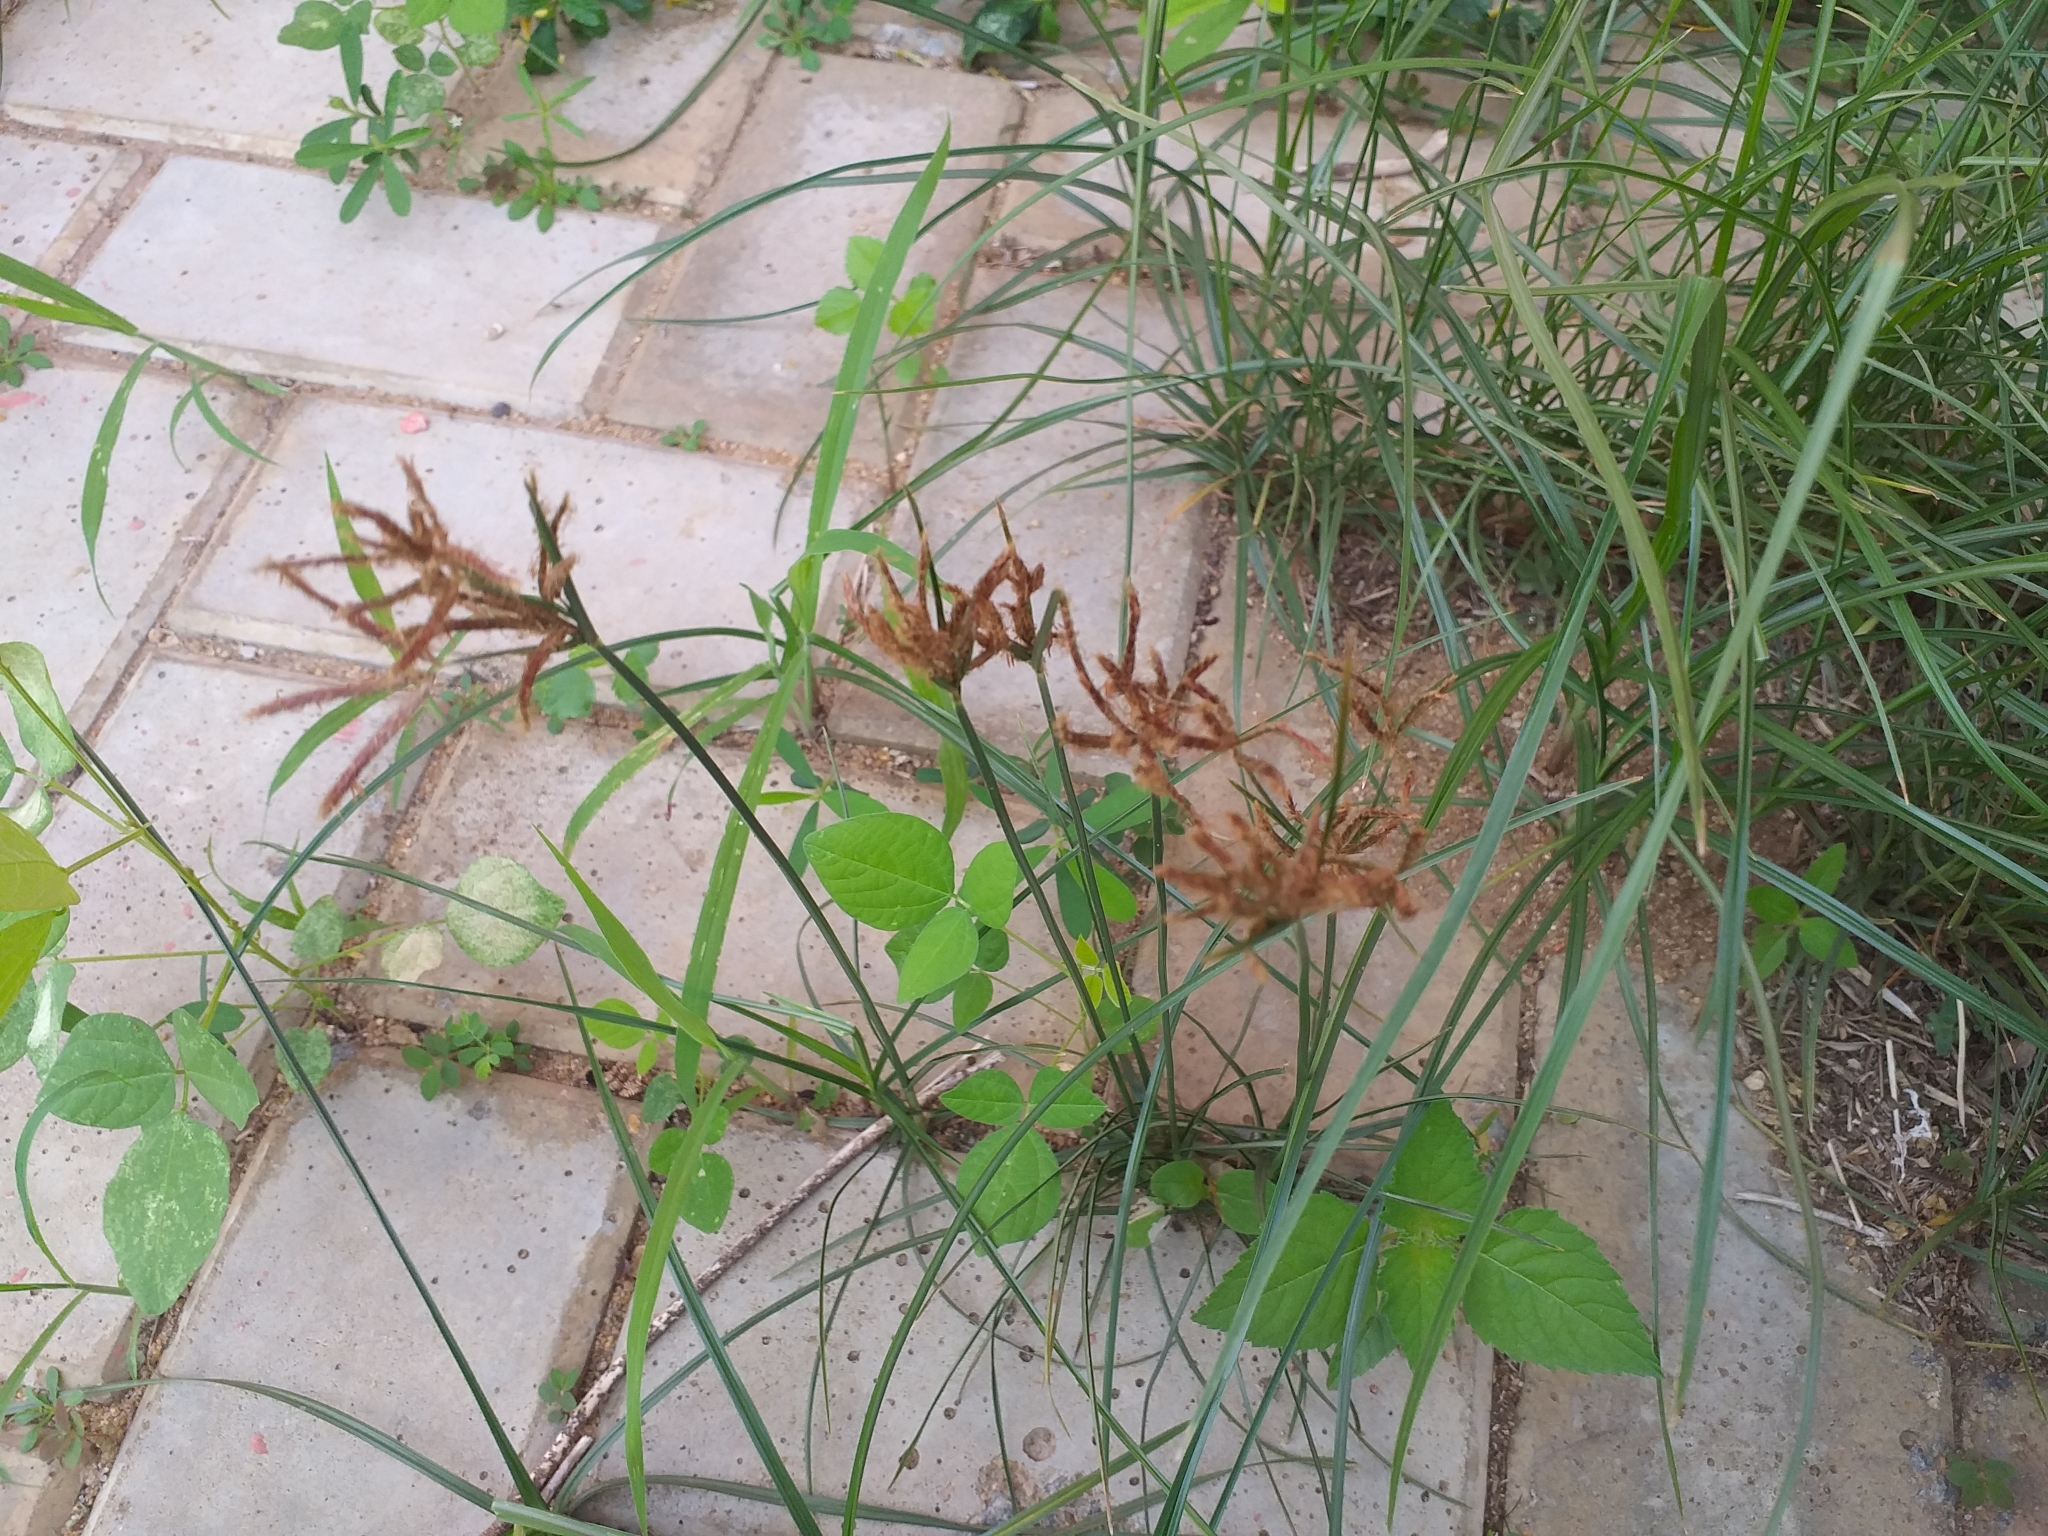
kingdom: Plantae
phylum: Tracheophyta
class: Liliopsida
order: Poales
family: Cyperaceae
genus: Cyperus
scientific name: Cyperus rotundus
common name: Nutgrass
